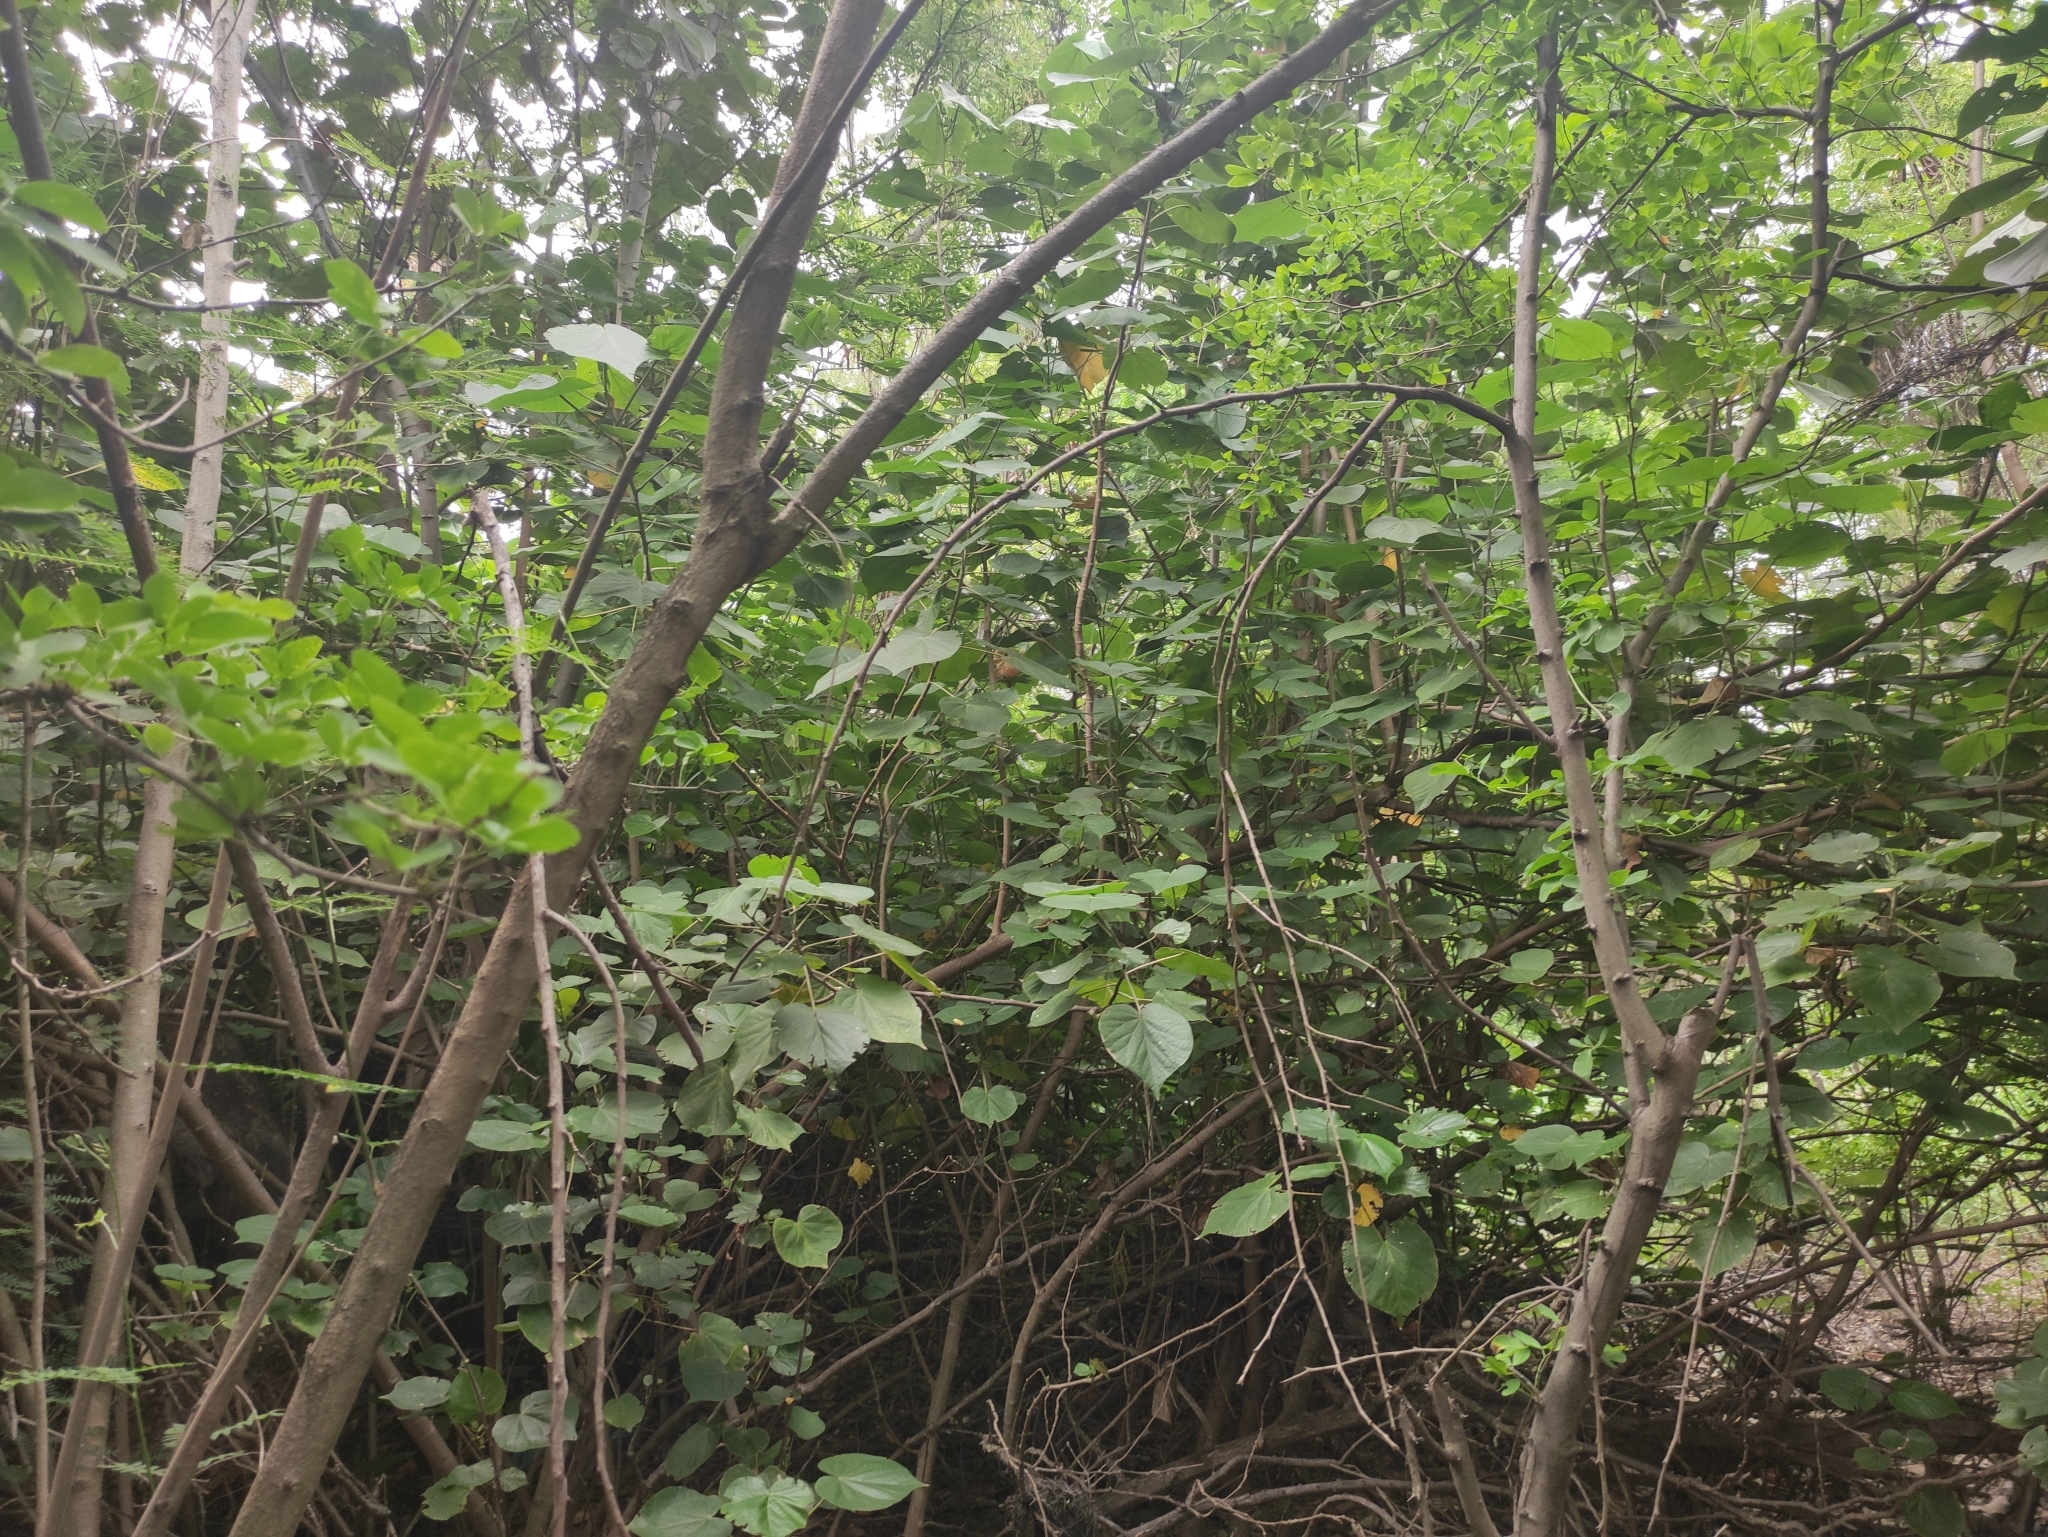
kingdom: Plantae
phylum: Tracheophyta
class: Magnoliopsida
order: Malvales
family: Malvaceae
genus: Talipariti
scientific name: Talipariti tiliaceum
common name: Sea hibiscus
